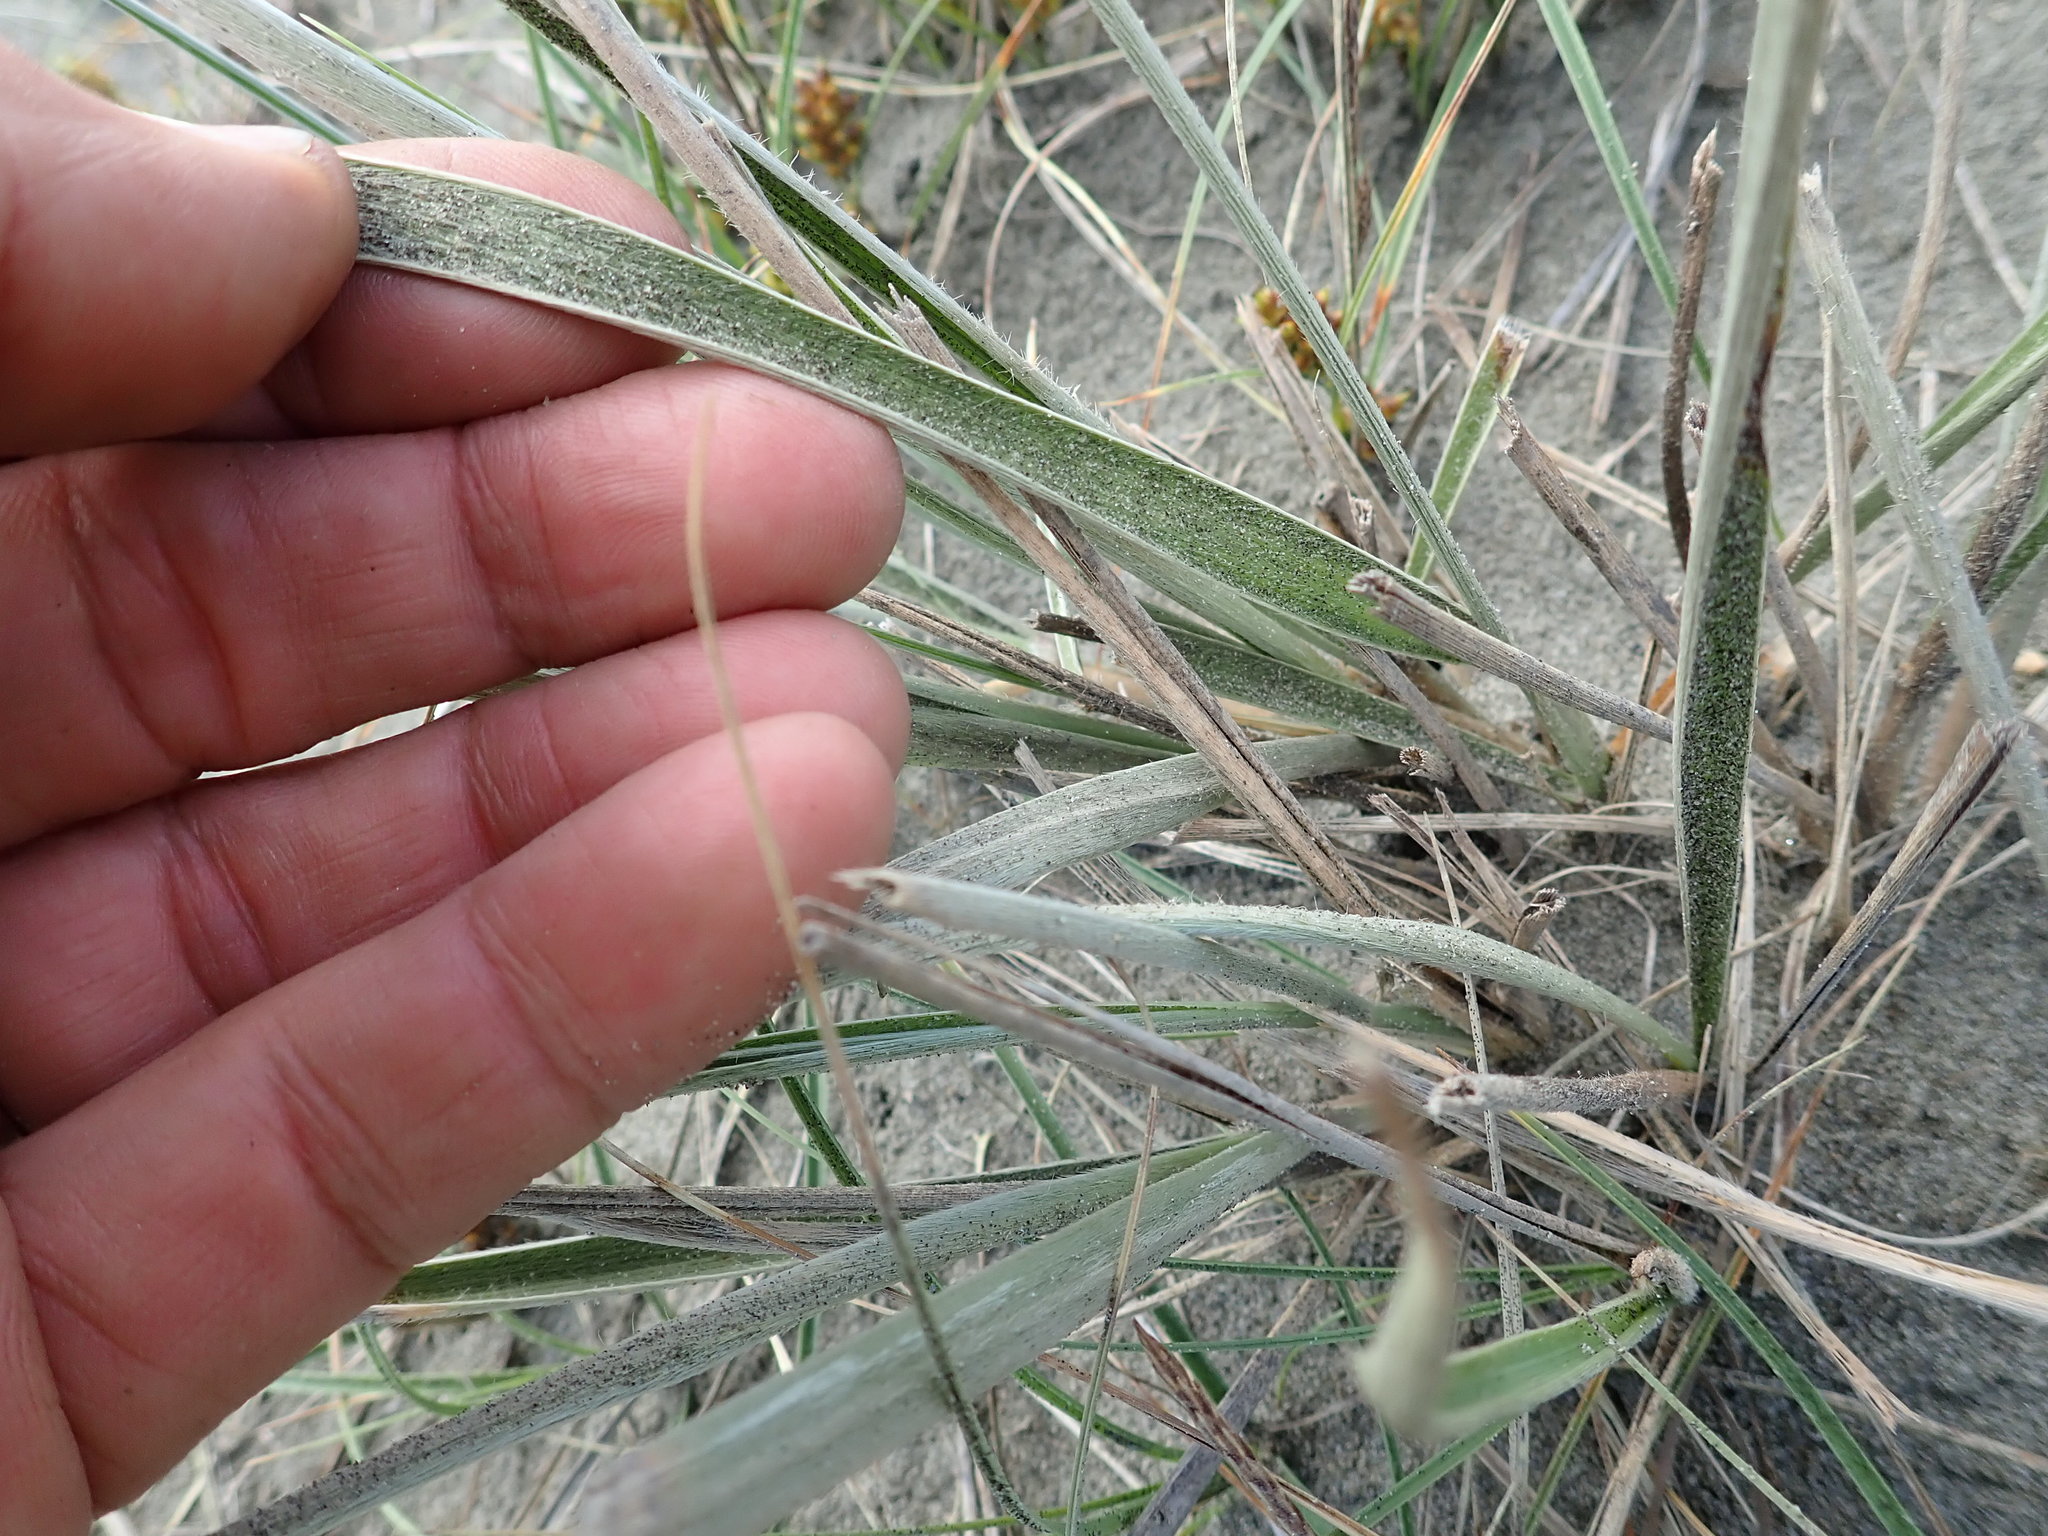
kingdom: Plantae
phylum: Tracheophyta
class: Liliopsida
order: Poales
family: Poaceae
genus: Spinifex
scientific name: Spinifex sericeus
